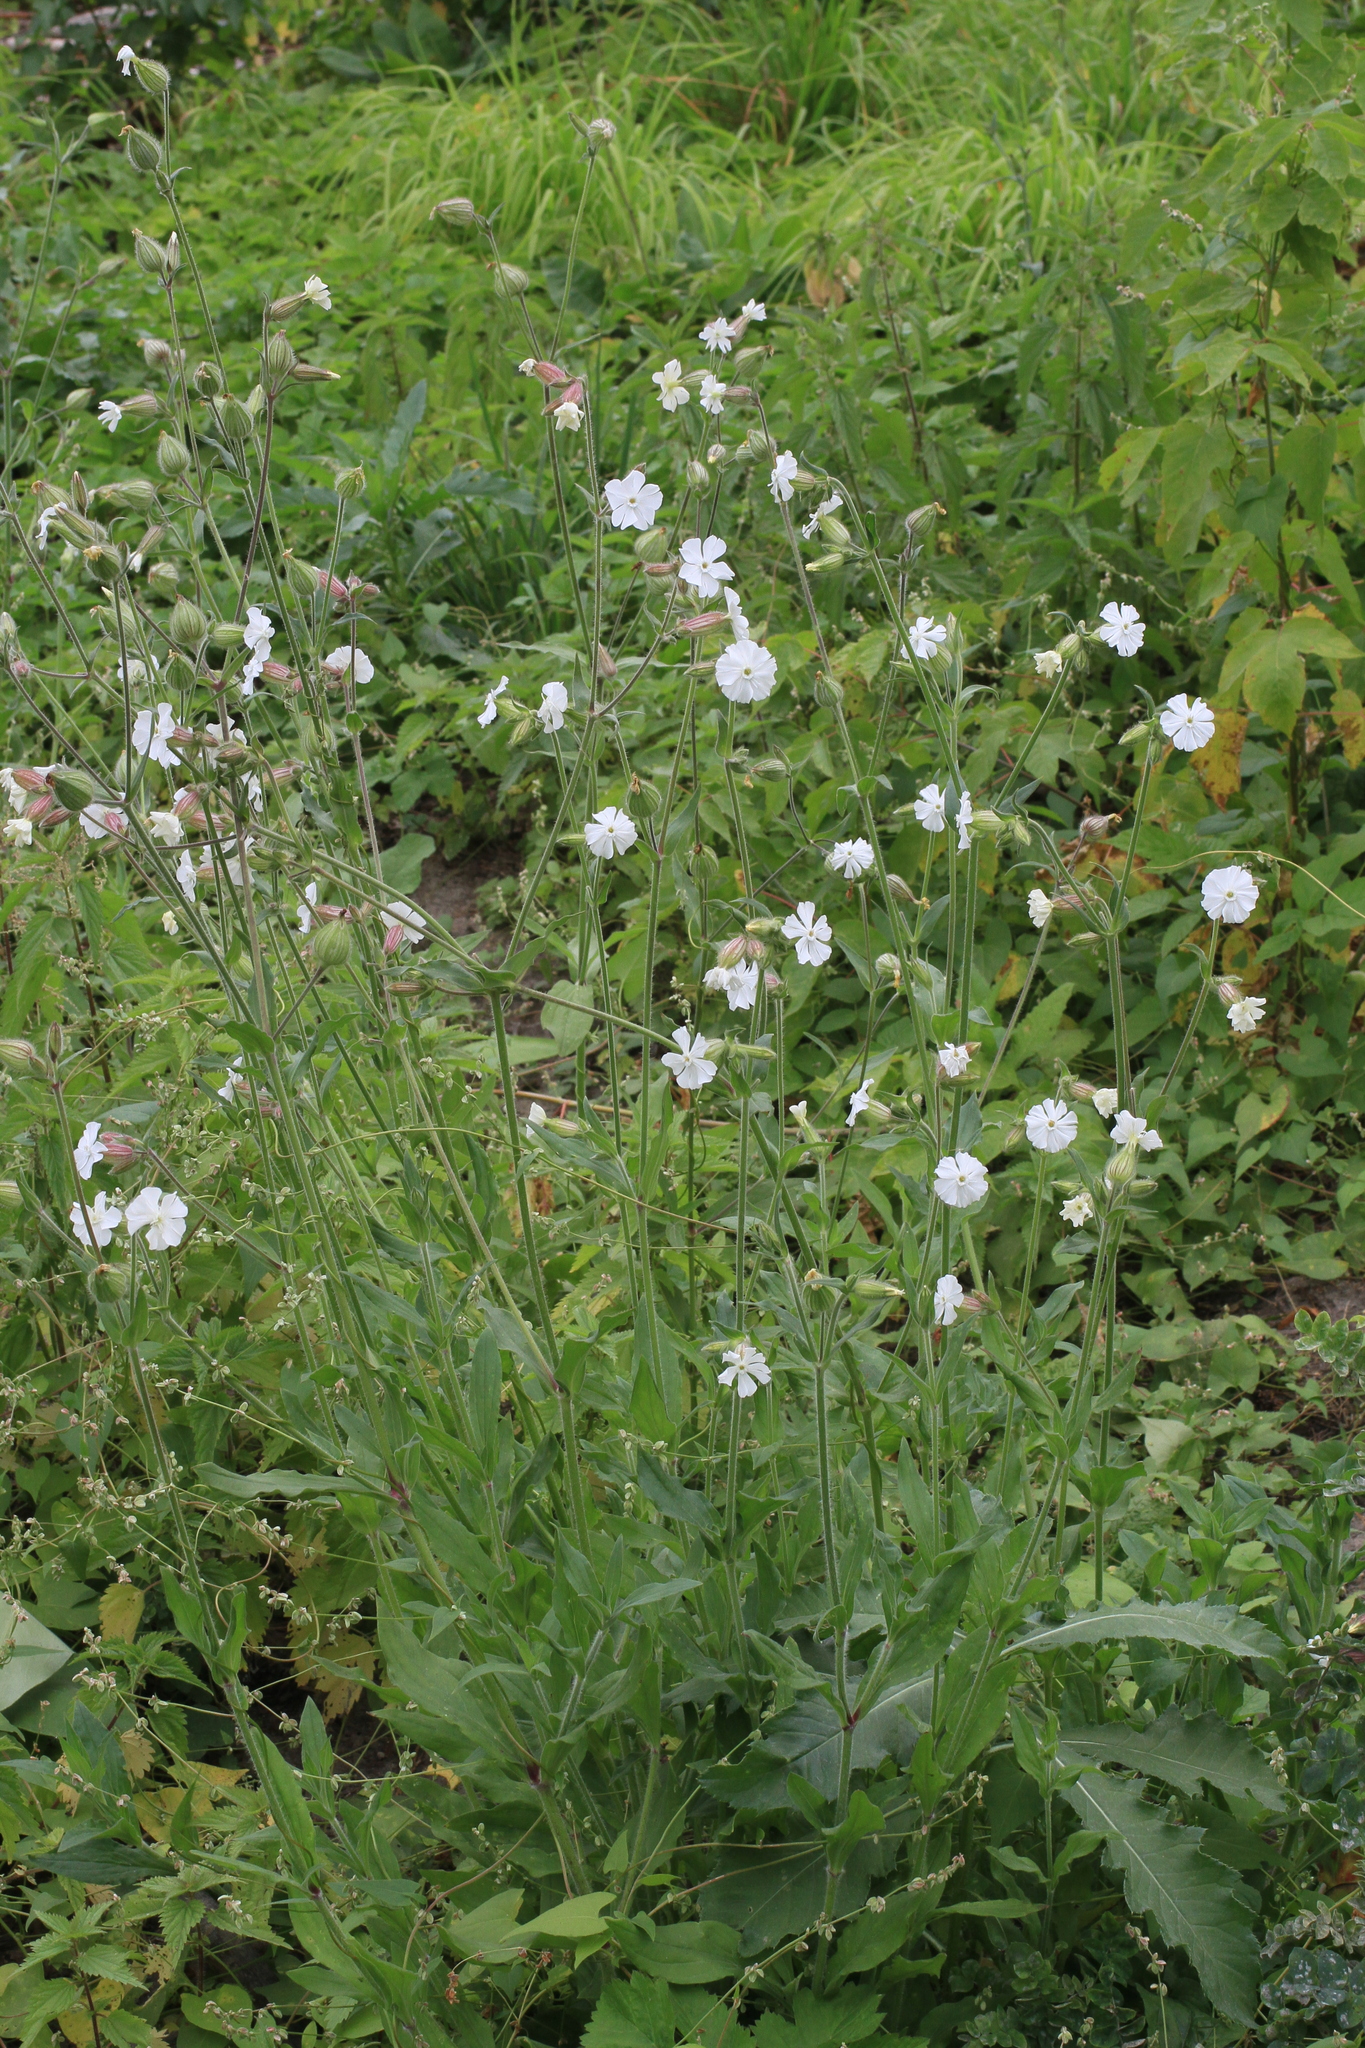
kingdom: Plantae
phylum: Tracheophyta
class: Magnoliopsida
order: Caryophyllales
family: Caryophyllaceae
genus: Silene
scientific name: Silene latifolia
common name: White campion
